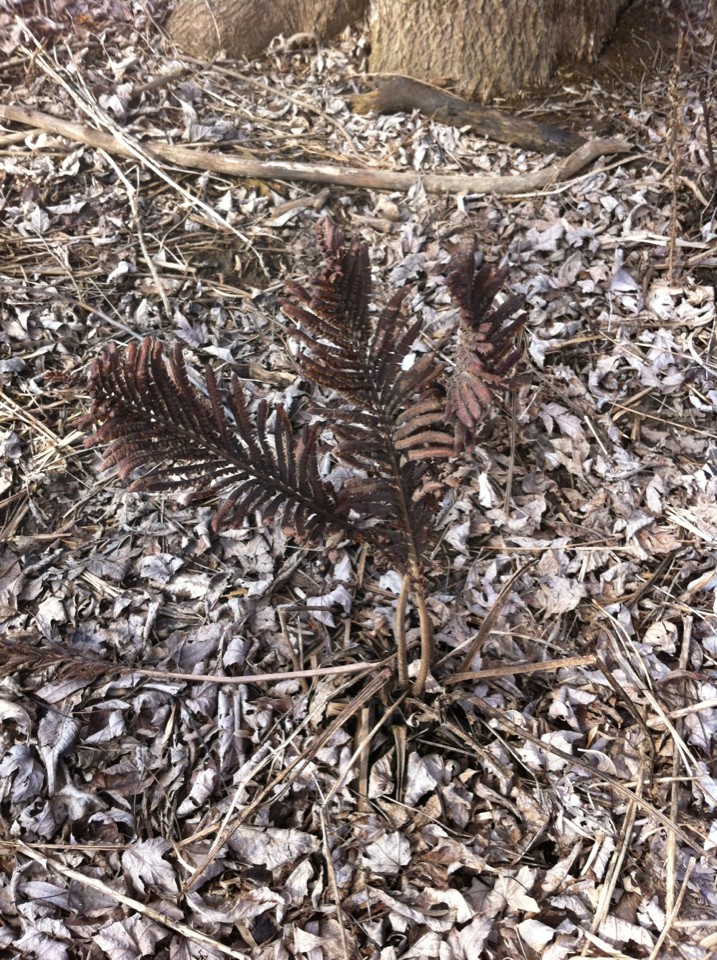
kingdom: Plantae
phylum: Tracheophyta
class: Polypodiopsida
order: Polypodiales
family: Onocleaceae
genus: Matteuccia
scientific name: Matteuccia struthiopteris
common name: Ostrich fern
